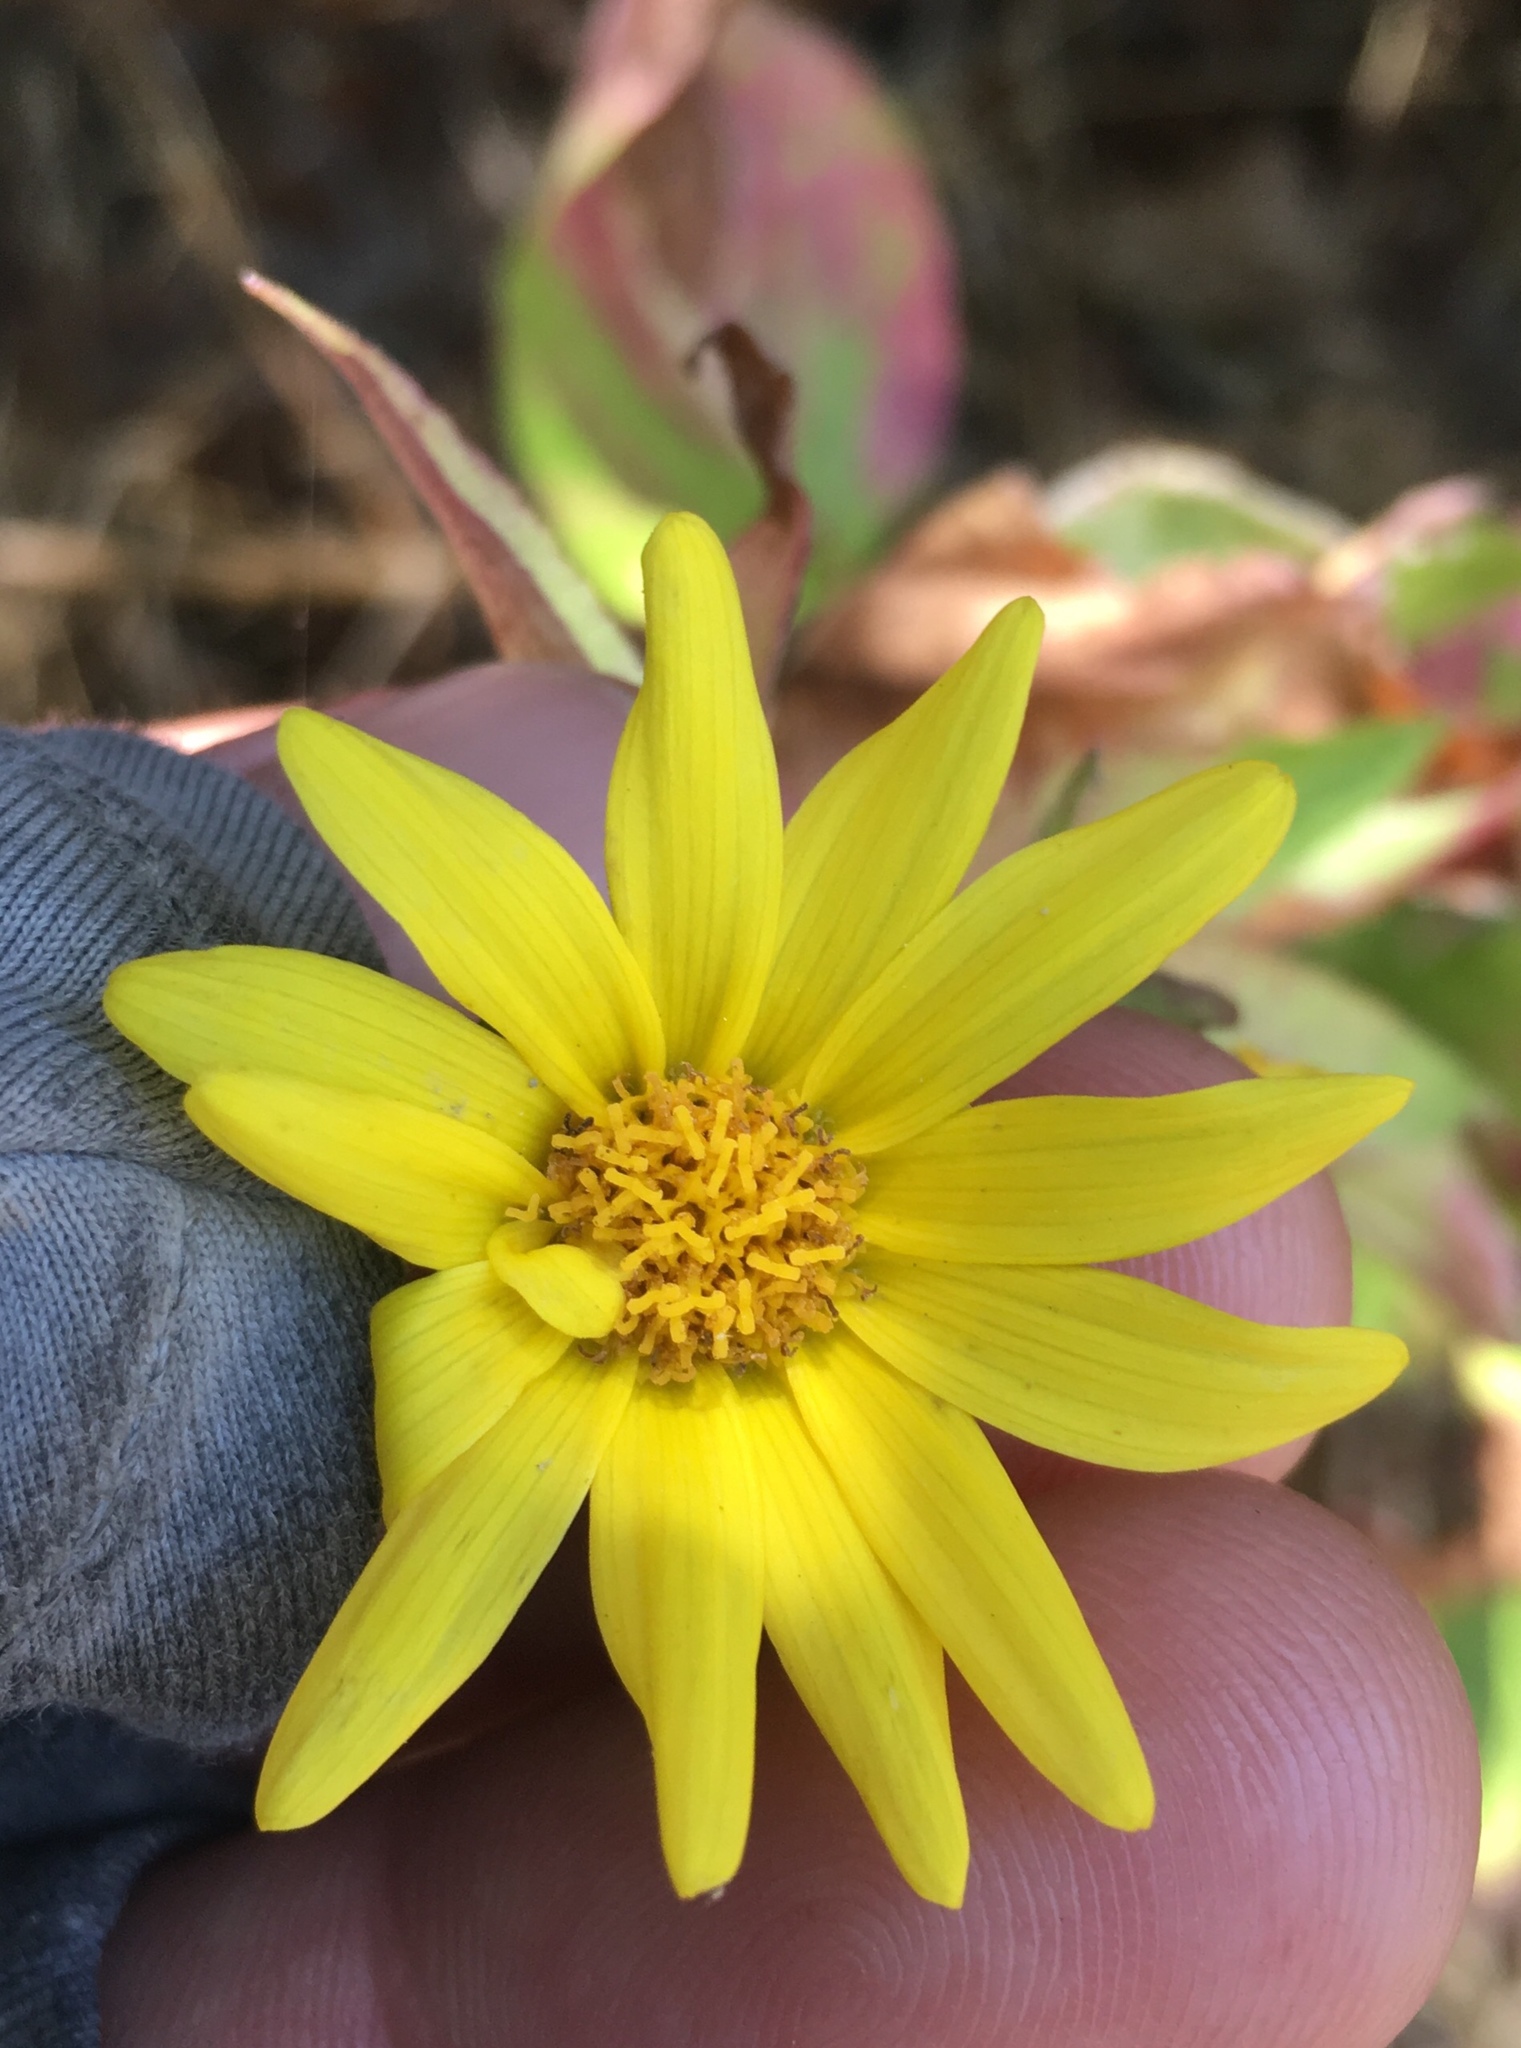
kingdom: Plantae
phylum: Tracheophyta
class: Magnoliopsida
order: Asterales
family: Asteraceae
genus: Venegasia
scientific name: Venegasia carpesioides
